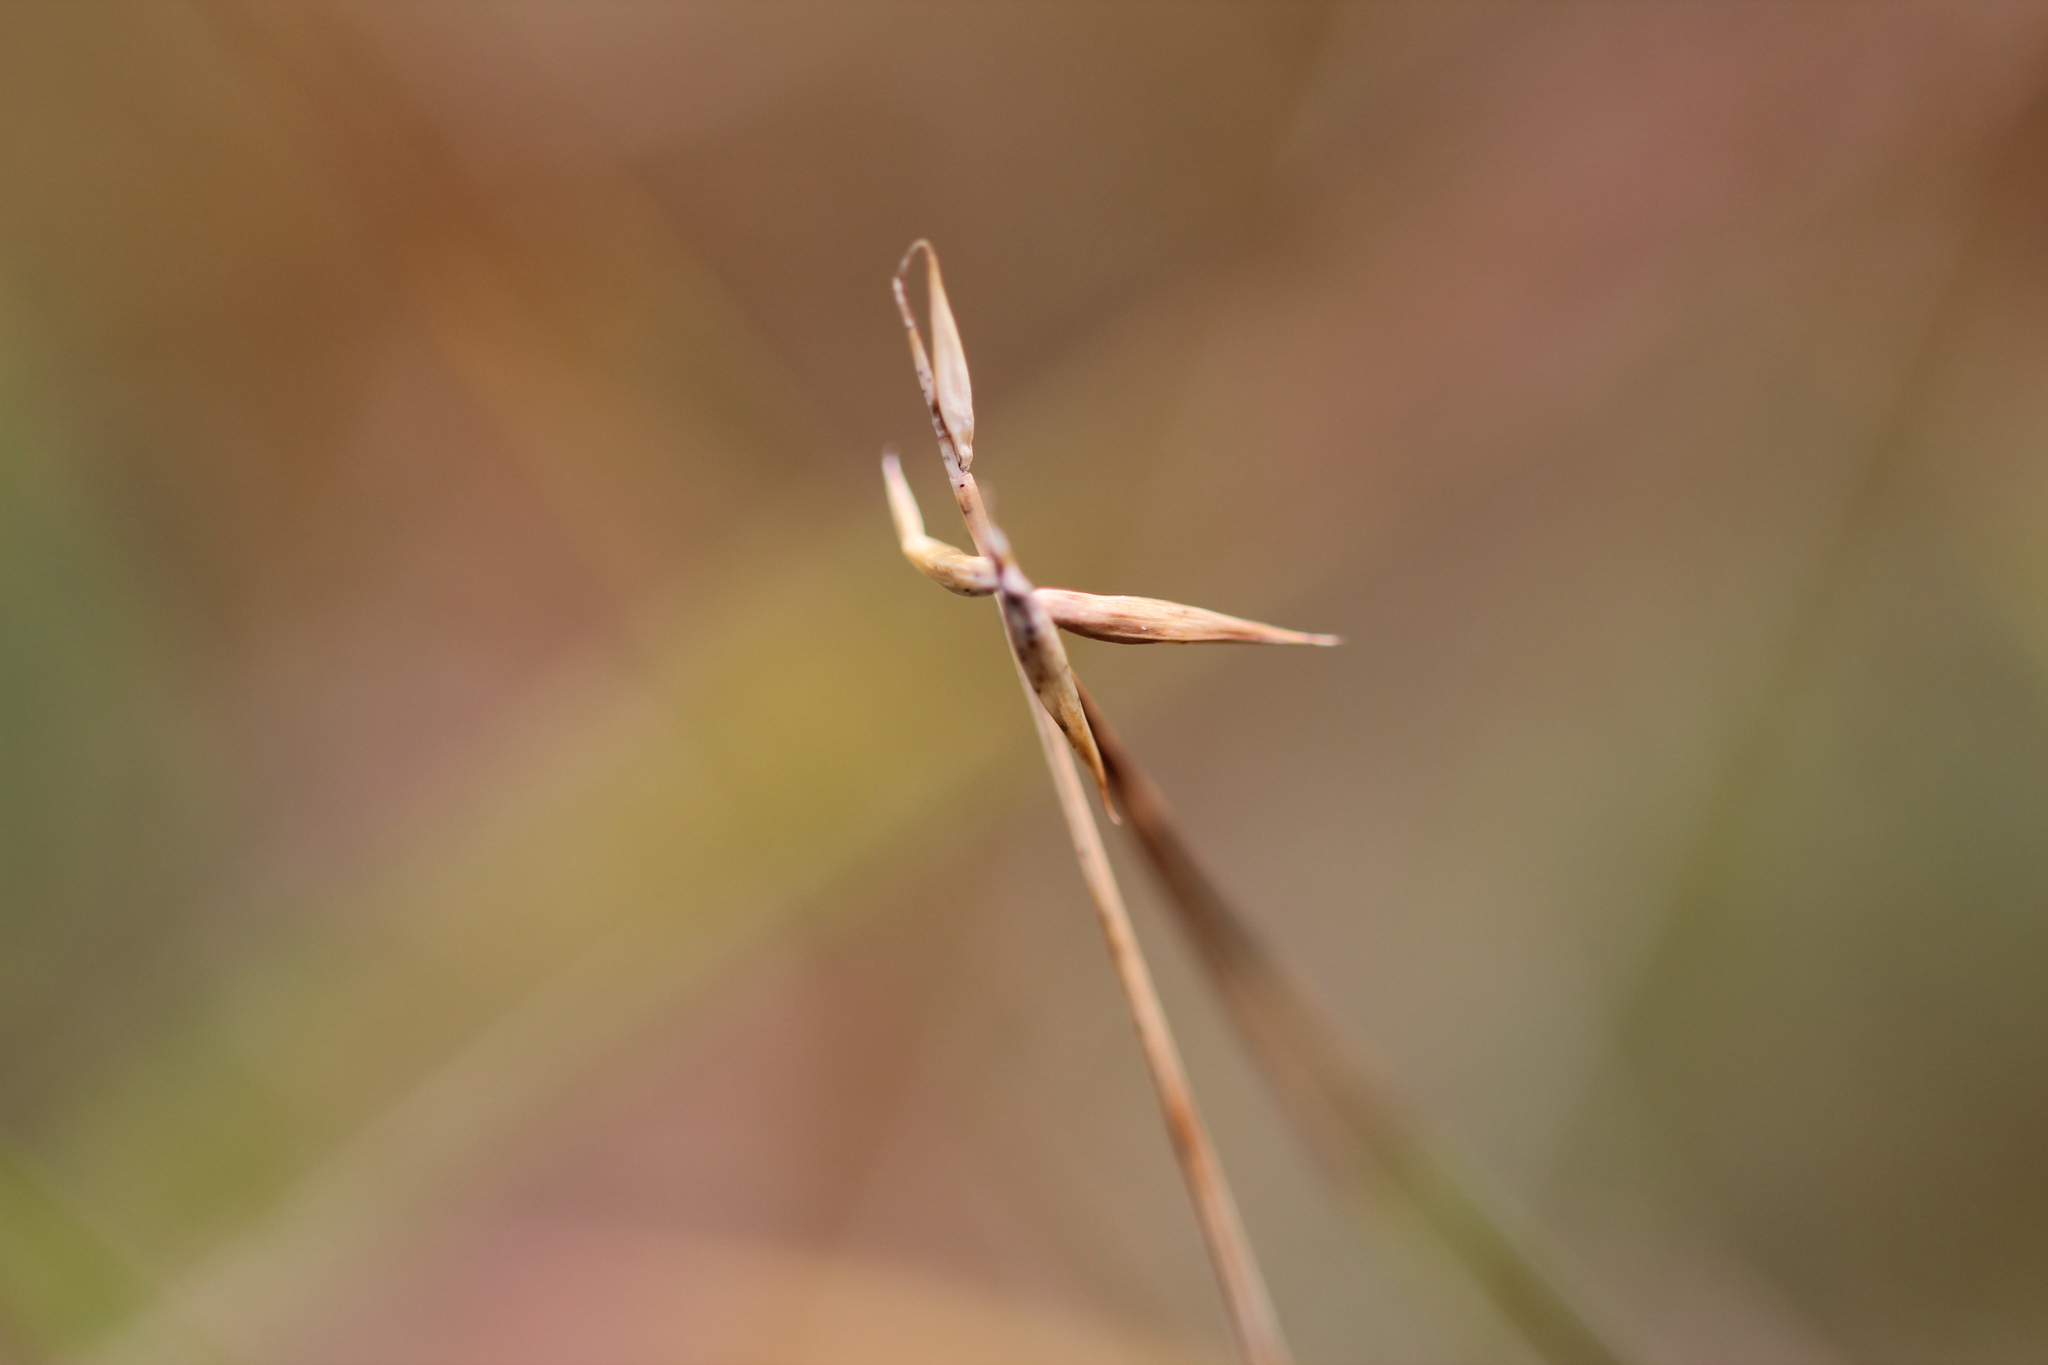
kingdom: Plantae
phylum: Tracheophyta
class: Liliopsida
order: Poales
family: Cyperaceae
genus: Carex
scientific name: Carex pauciflora
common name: Few-flowered sedge
